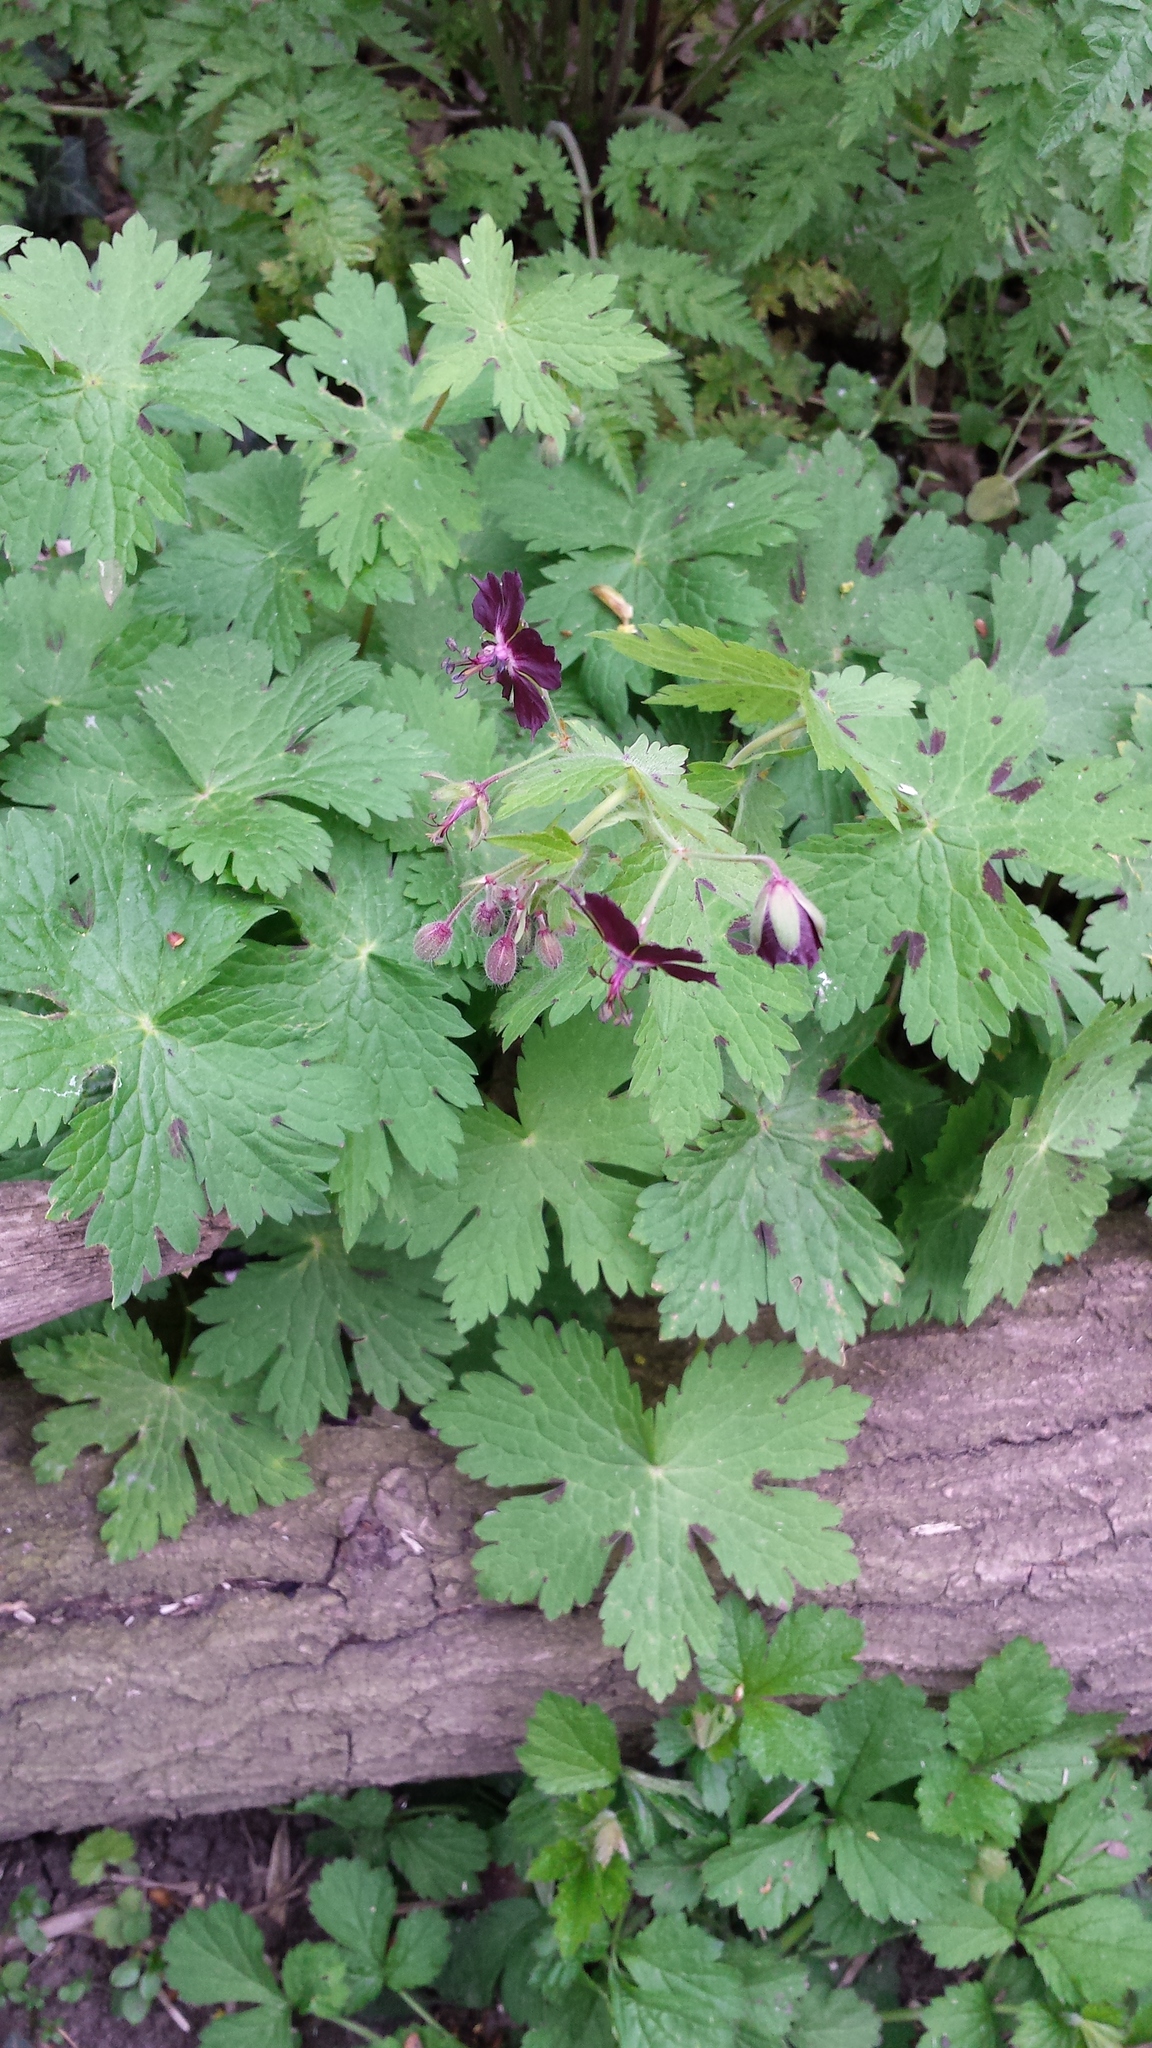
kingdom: Plantae
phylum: Tracheophyta
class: Magnoliopsida
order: Geraniales
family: Geraniaceae
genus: Geranium
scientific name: Geranium phaeum
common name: Dusky crane's-bill
